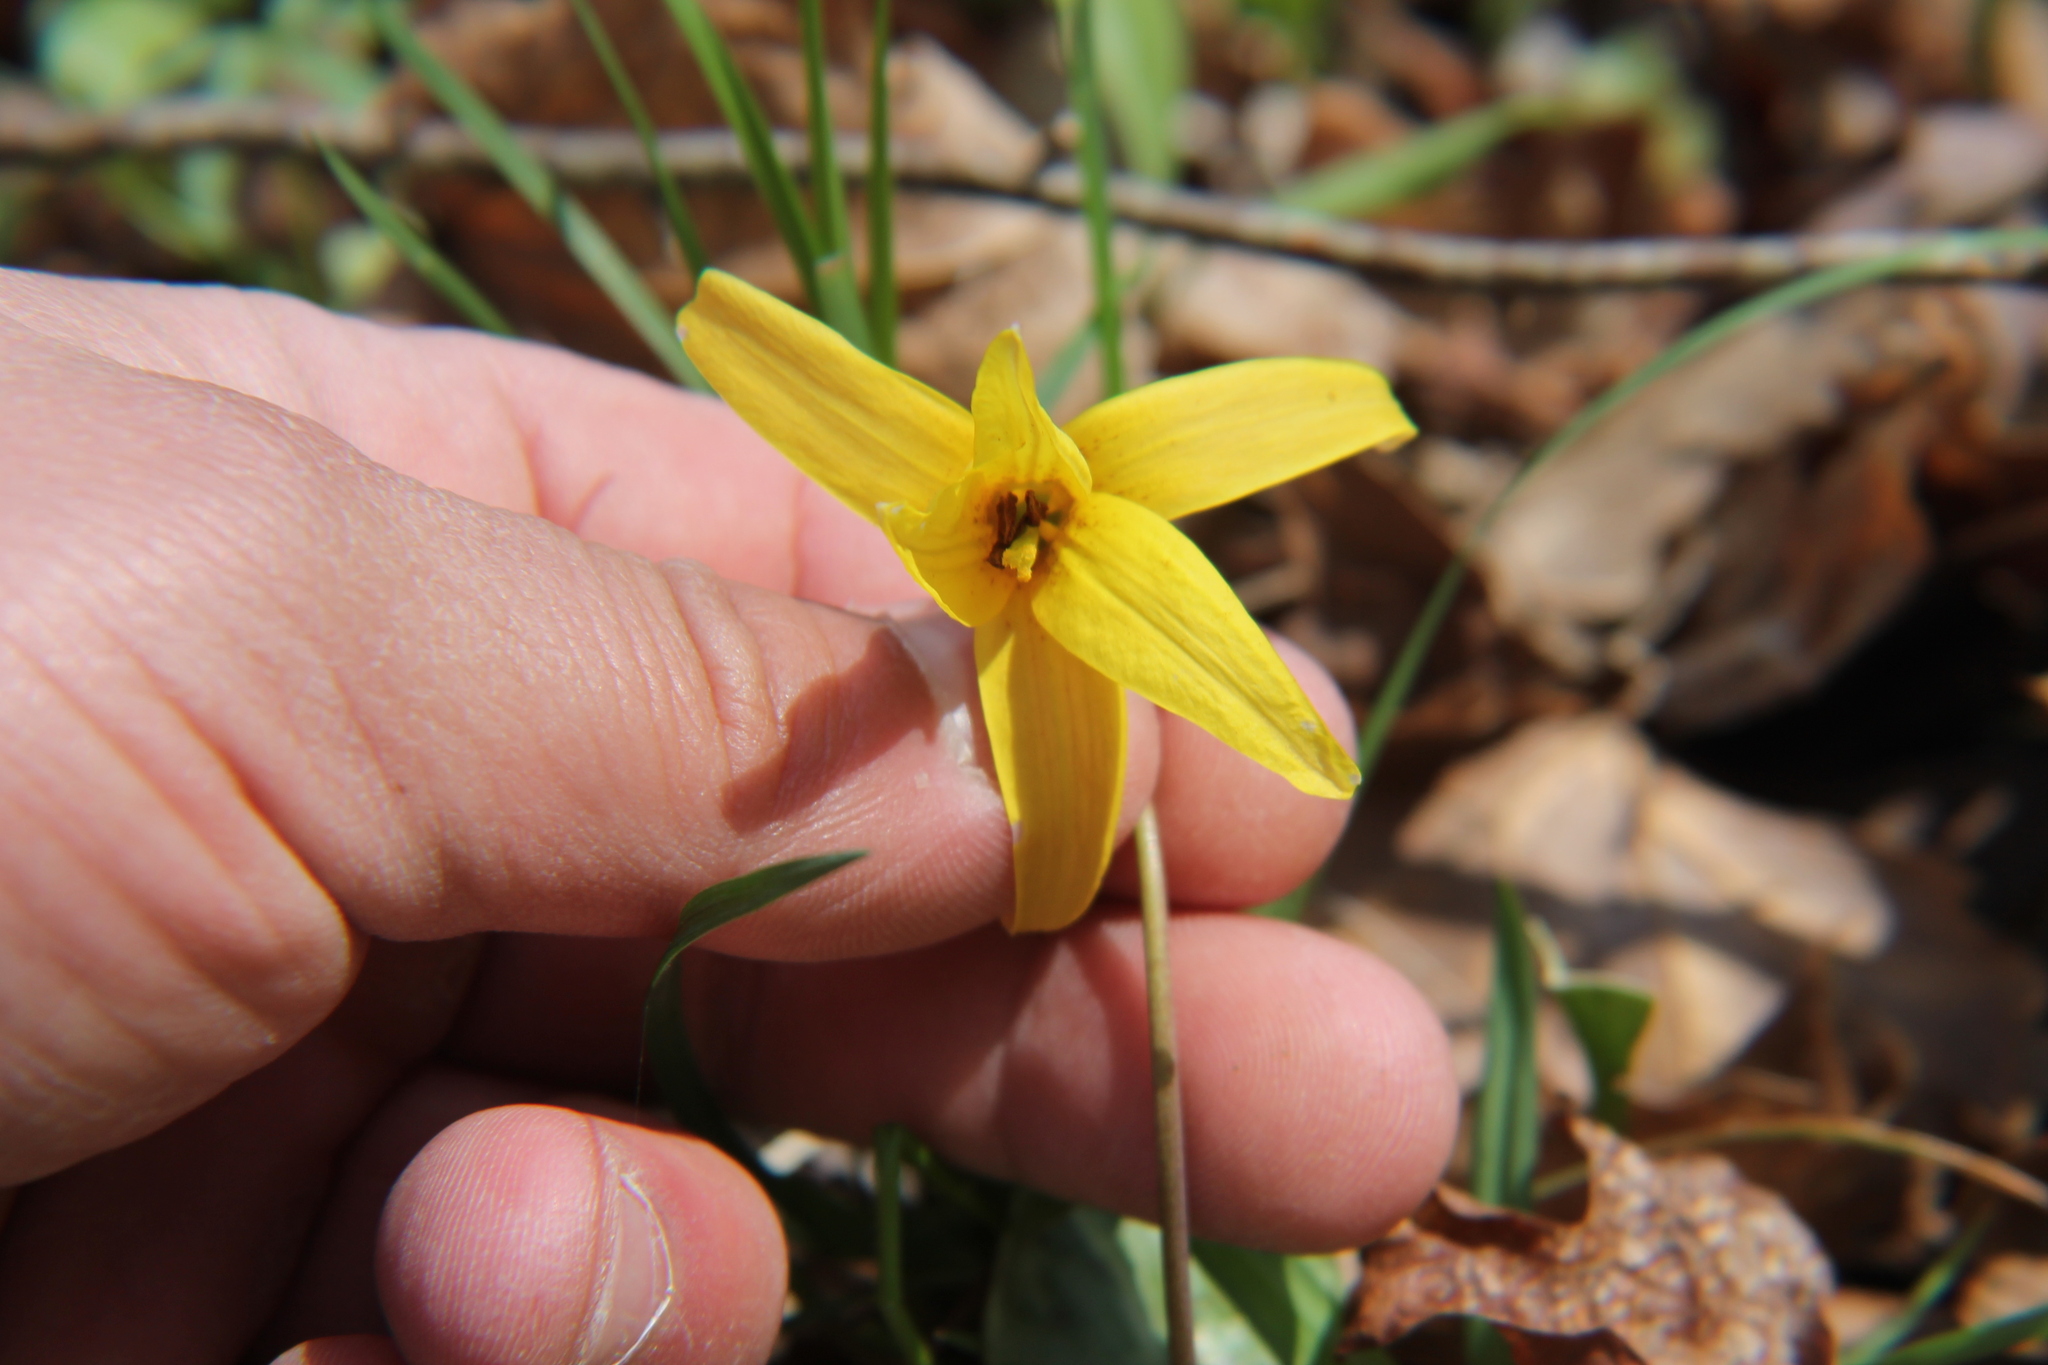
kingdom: Plantae
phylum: Tracheophyta
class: Liliopsida
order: Liliales
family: Liliaceae
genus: Erythronium
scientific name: Erythronium americanum
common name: Yellow adder's-tongue
